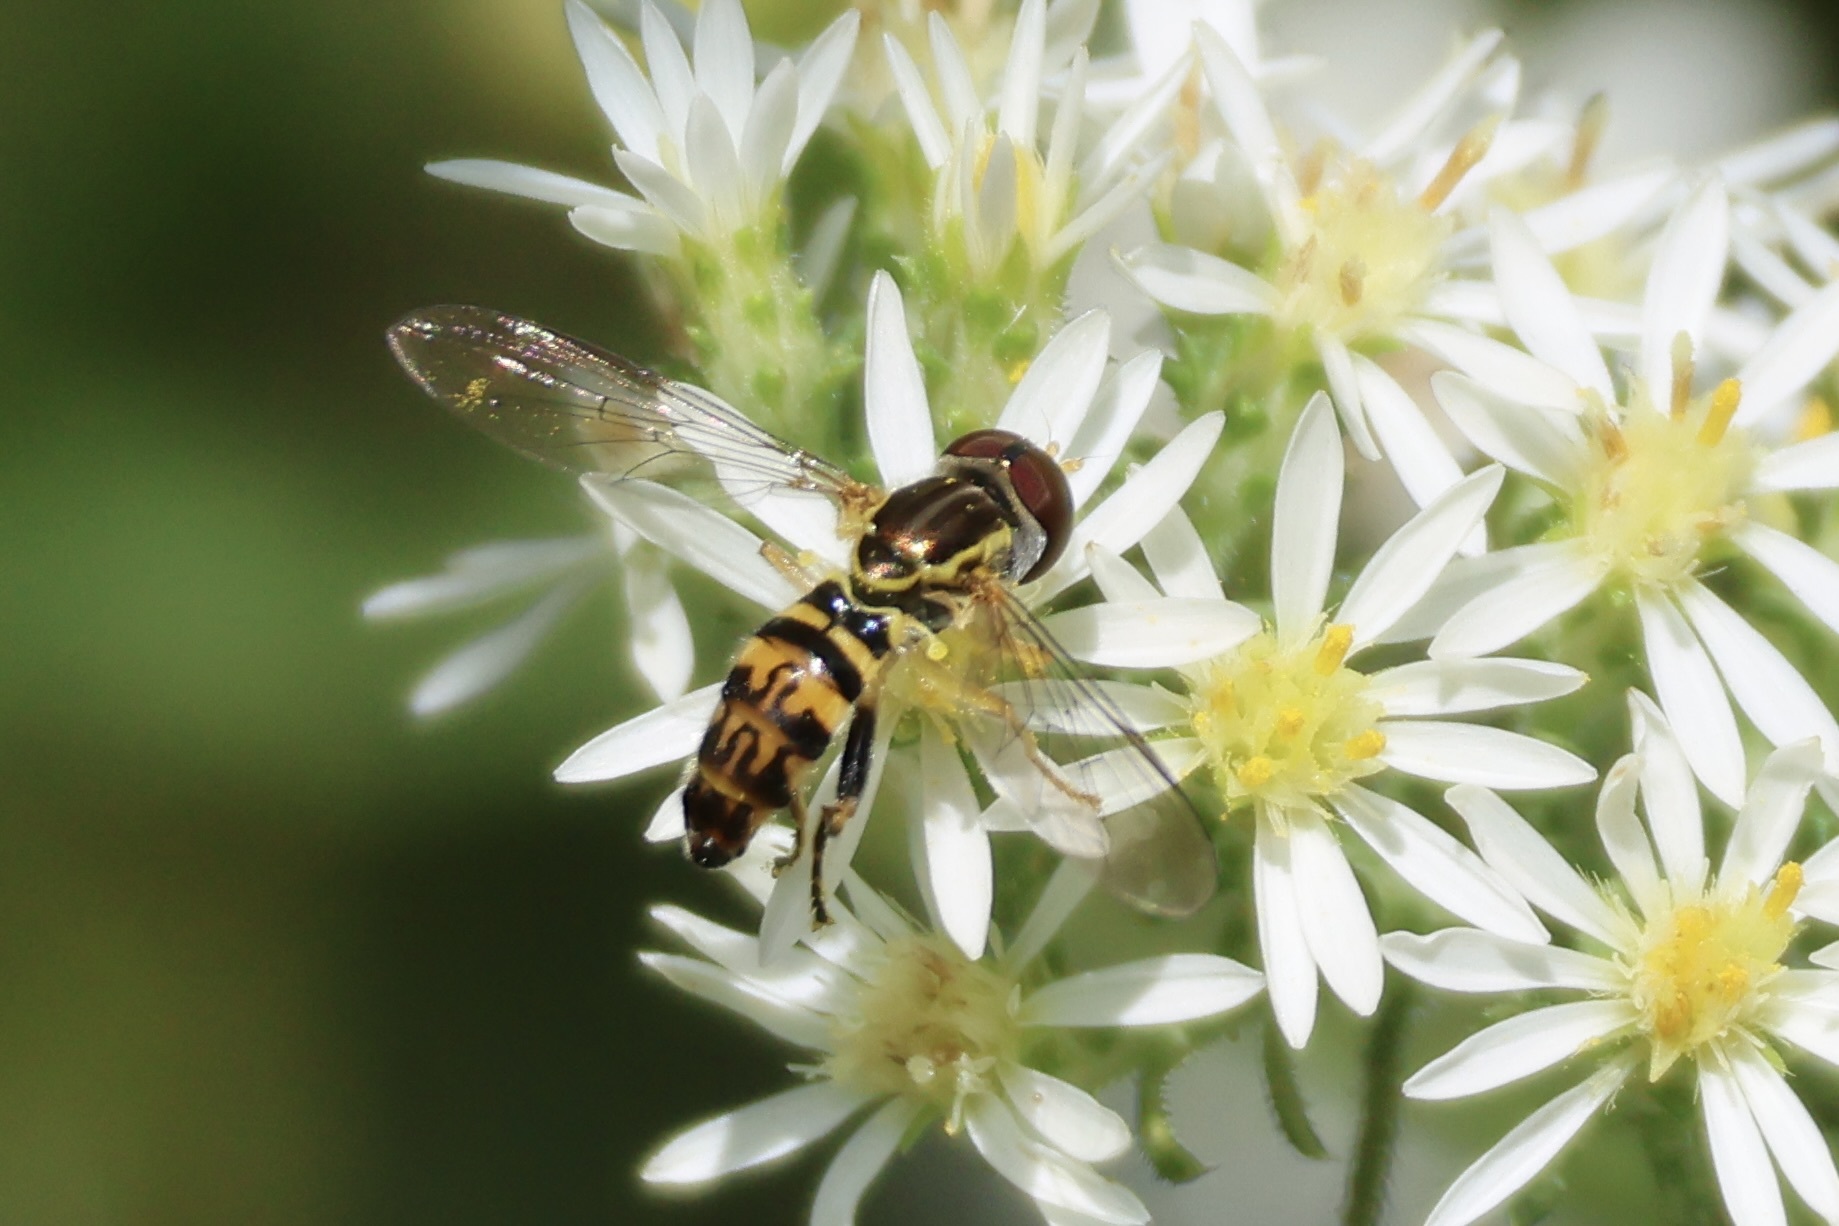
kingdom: Animalia
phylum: Arthropoda
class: Insecta
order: Diptera
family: Syrphidae
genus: Toxomerus
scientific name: Toxomerus geminatus
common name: Eastern calligrapher
